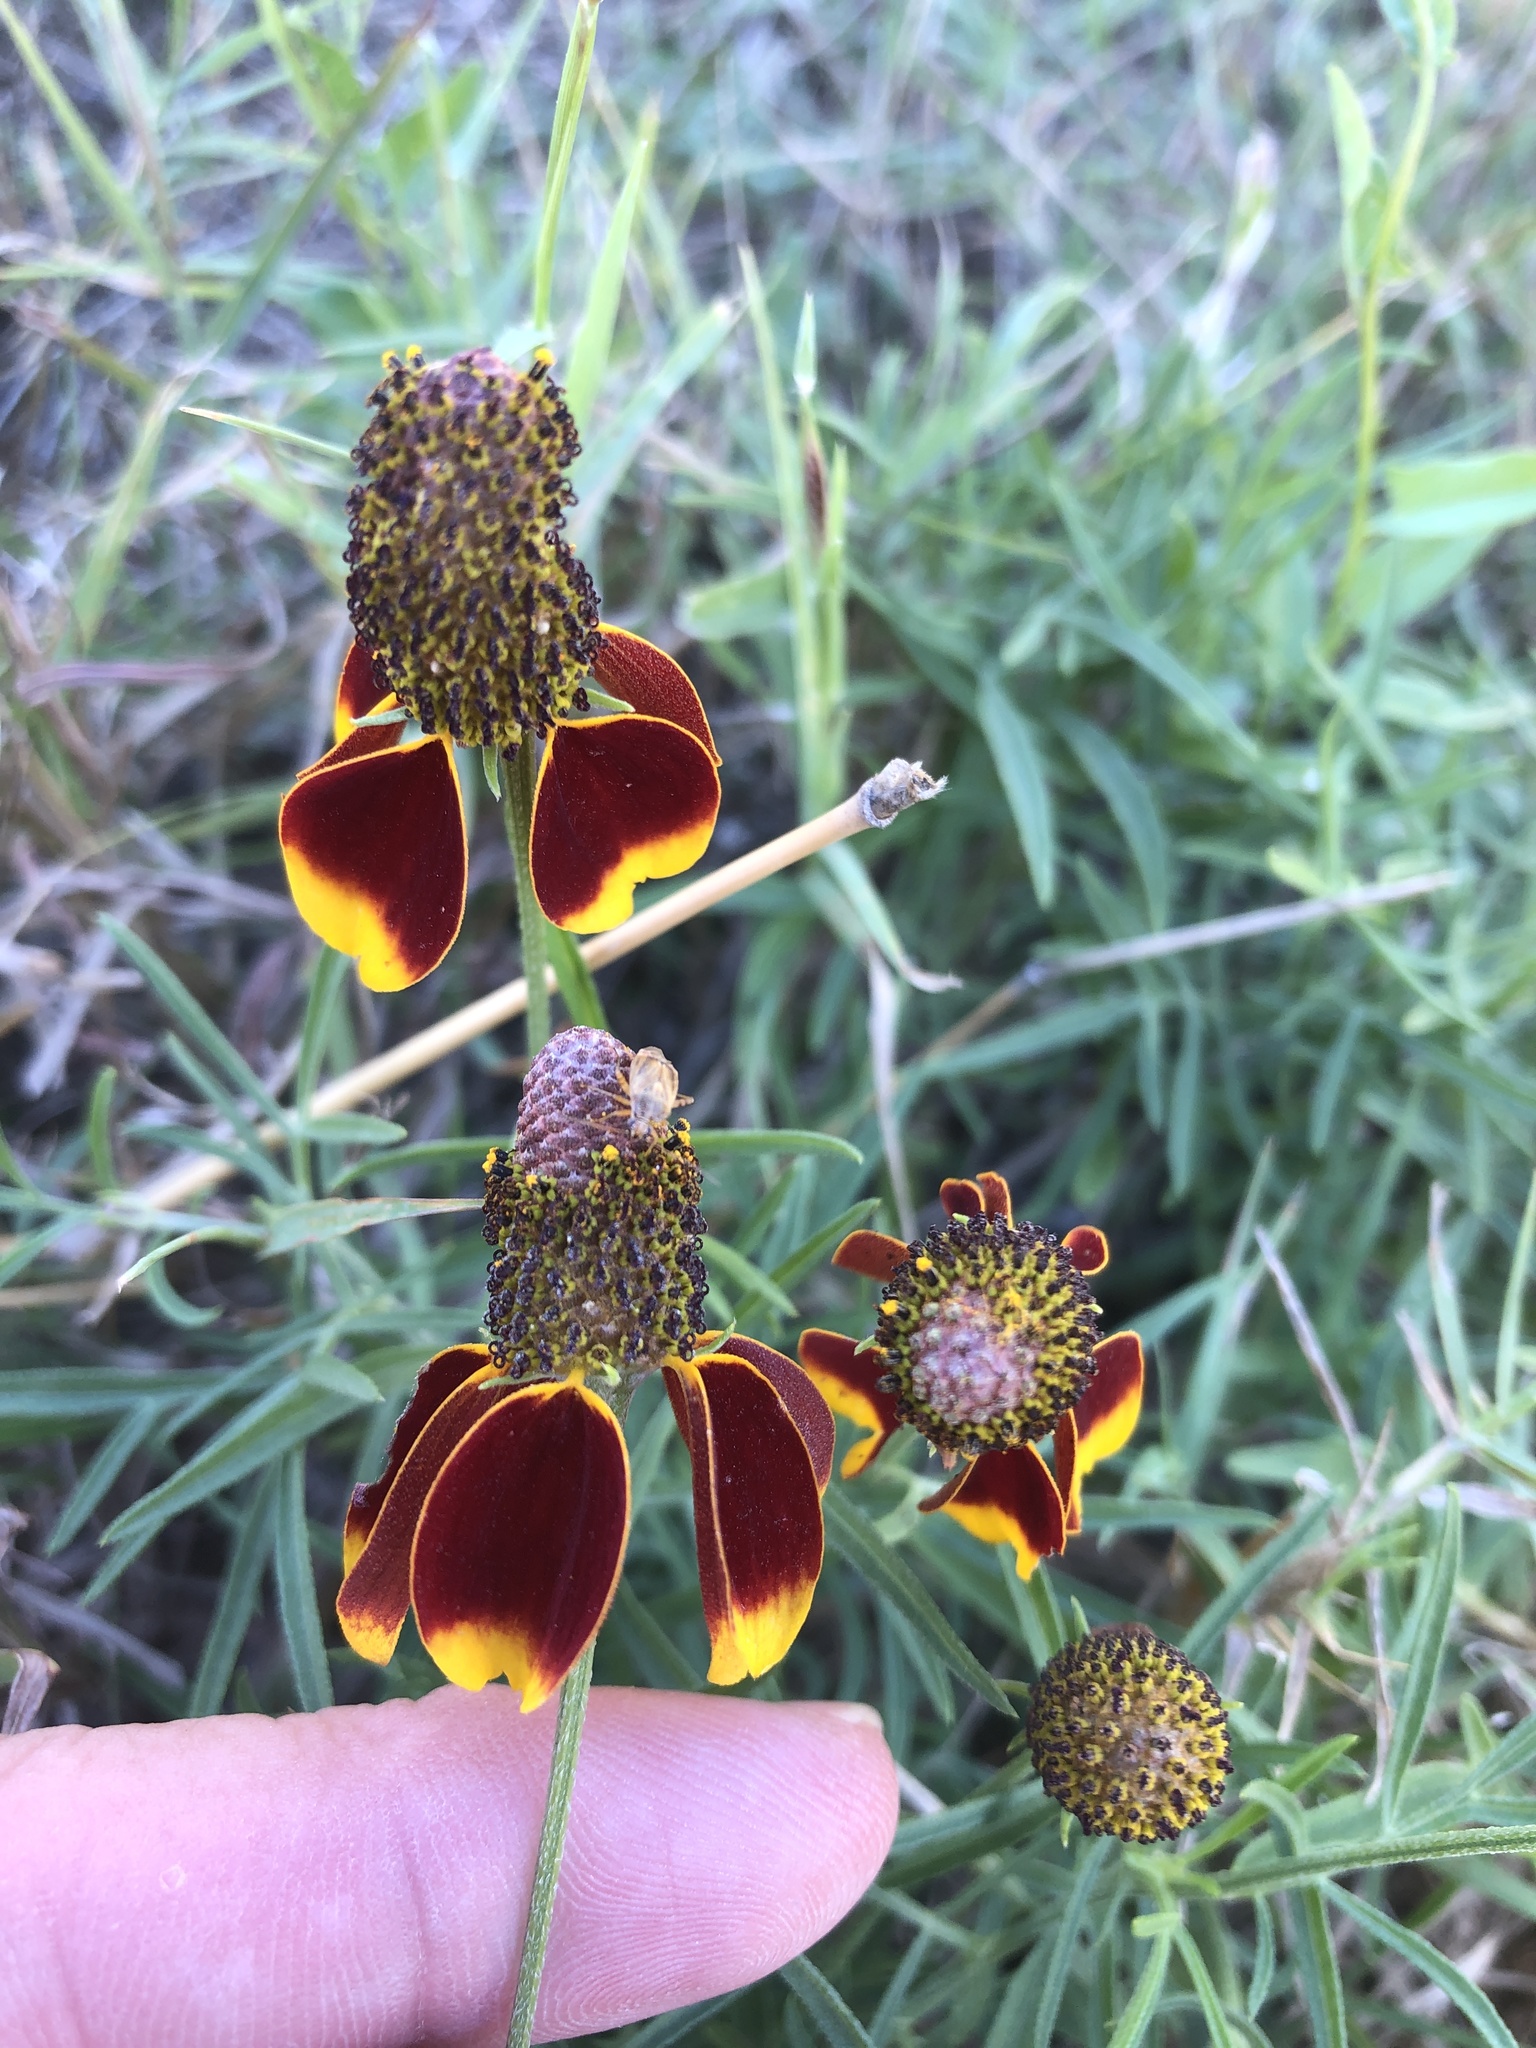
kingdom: Plantae
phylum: Tracheophyta
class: Magnoliopsida
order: Asterales
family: Asteraceae
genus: Ratibida
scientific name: Ratibida columnifera
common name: Prairie coneflower
